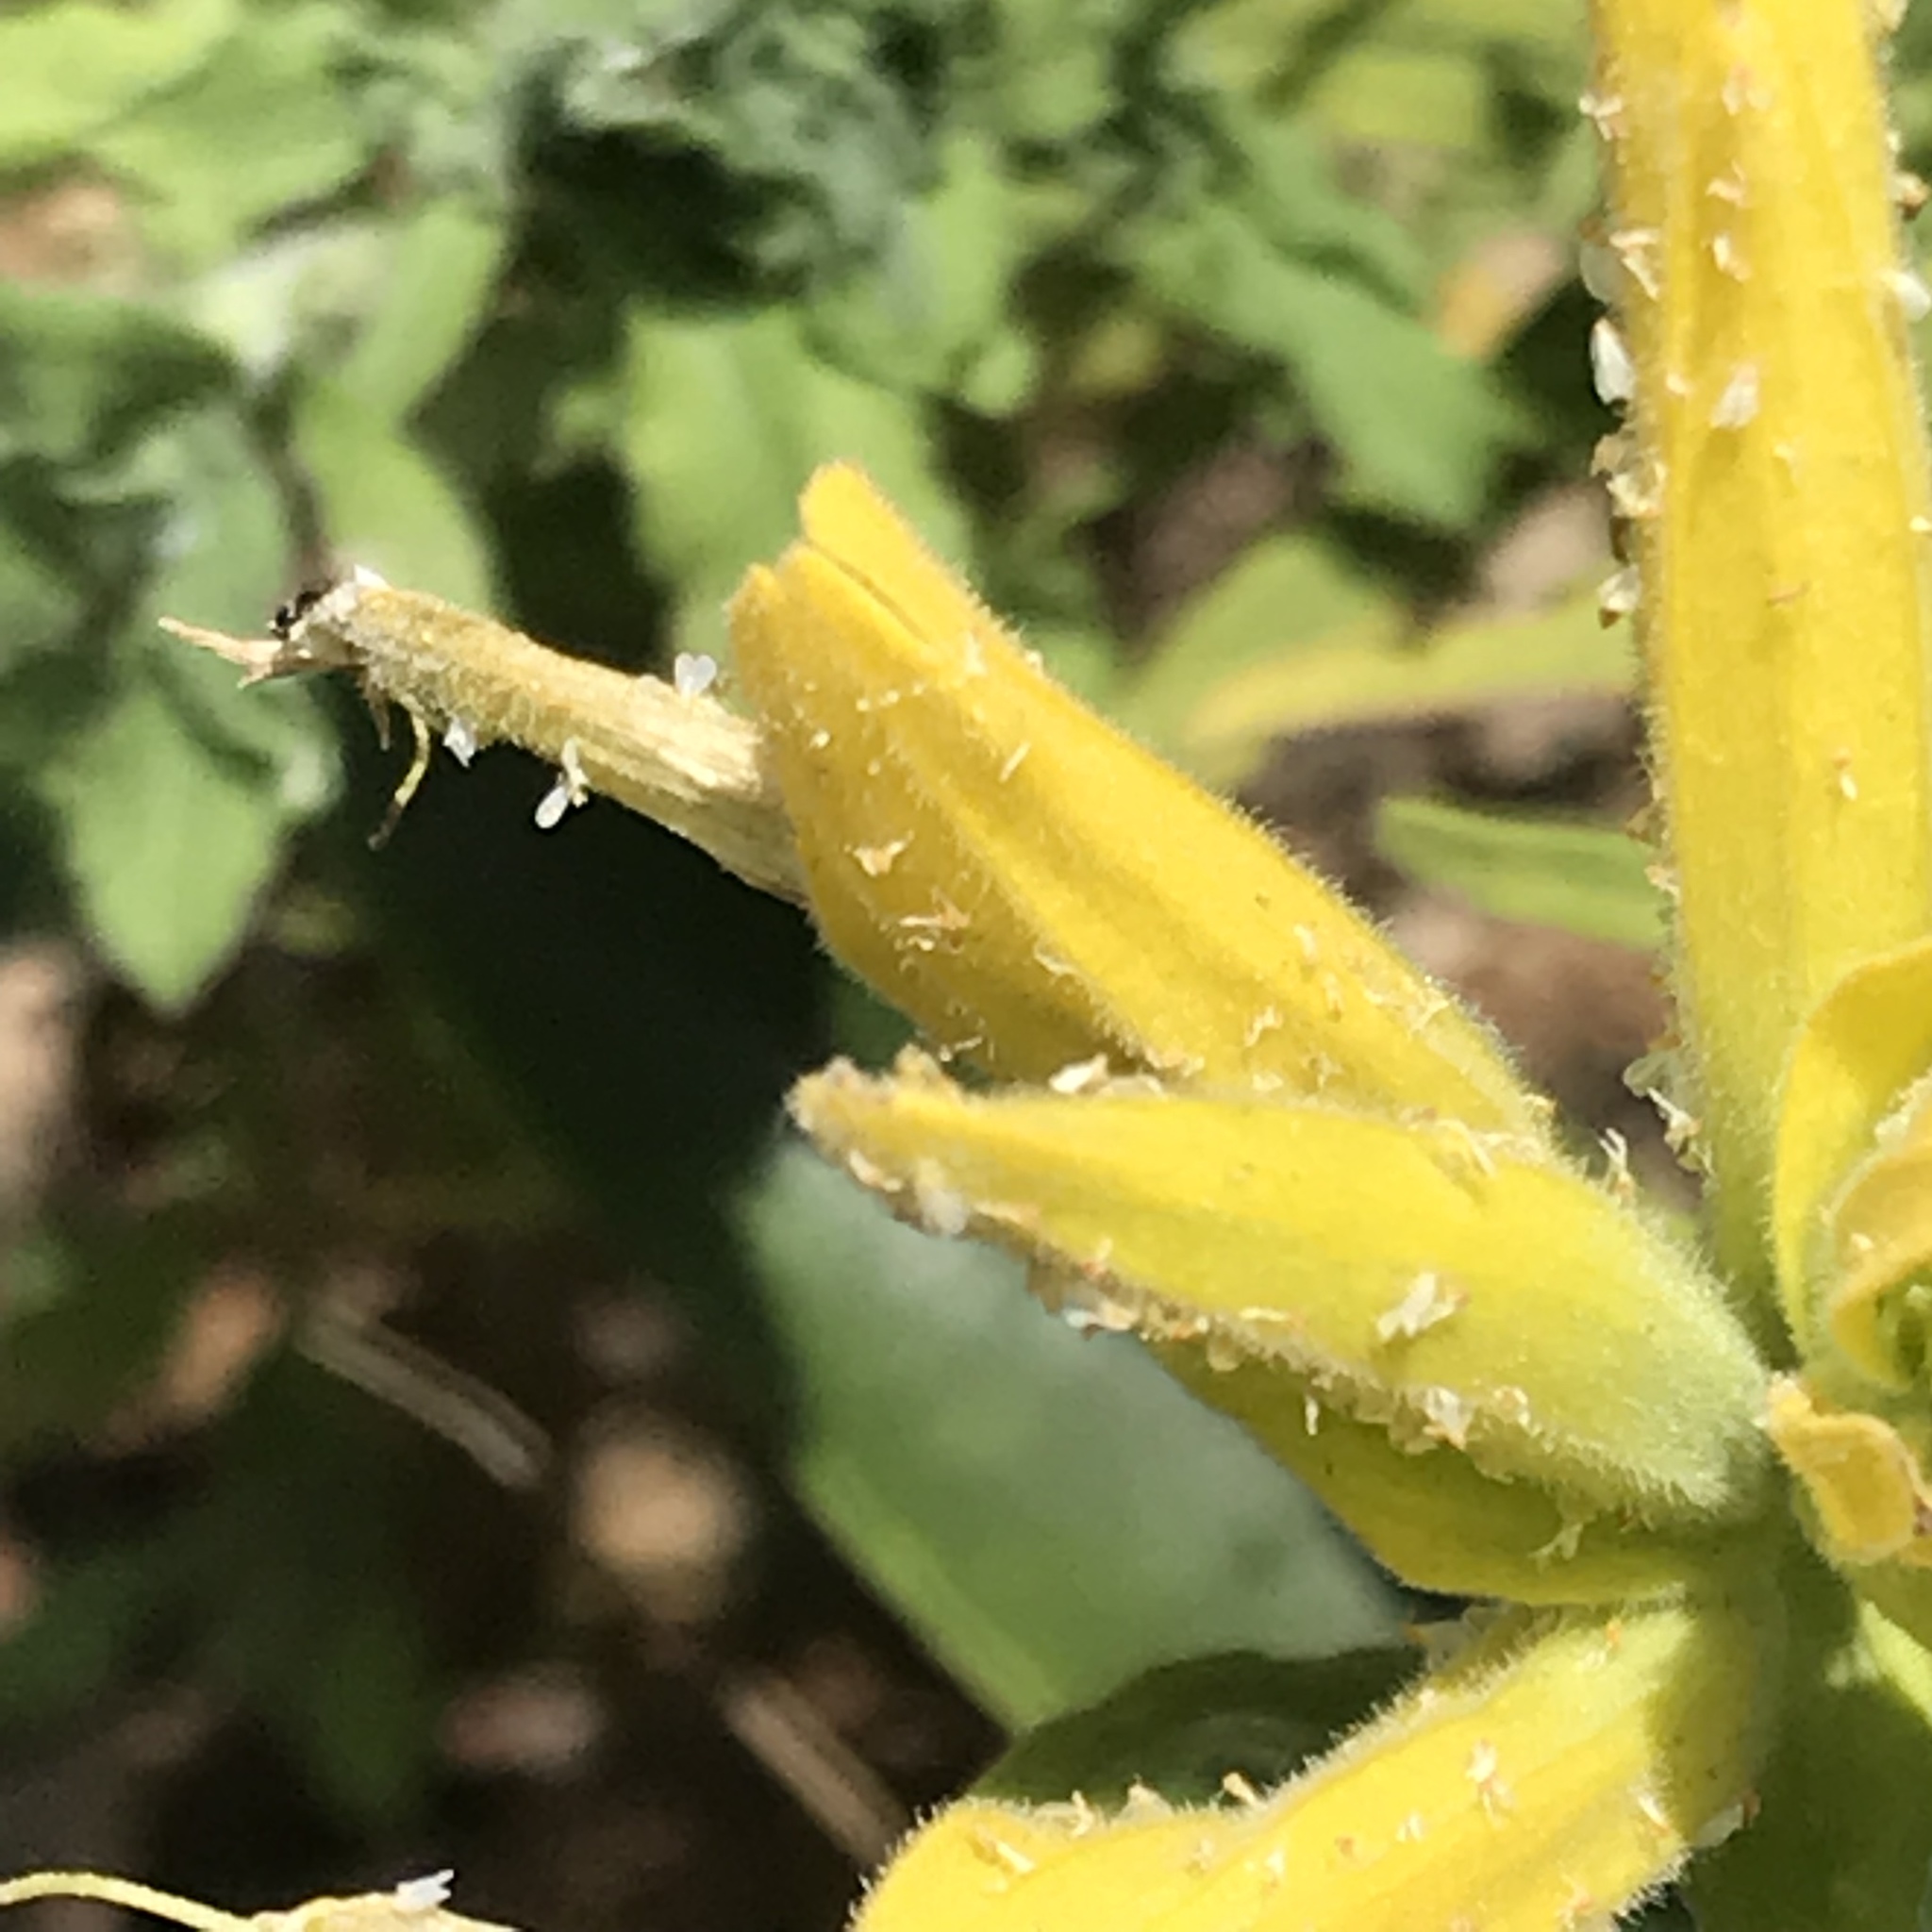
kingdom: Plantae
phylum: Tracheophyta
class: Magnoliopsida
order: Lamiales
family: Orobanchaceae
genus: Castilleja
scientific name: Castilleja tenuiflora
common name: Santa catalina indian paintbrush
